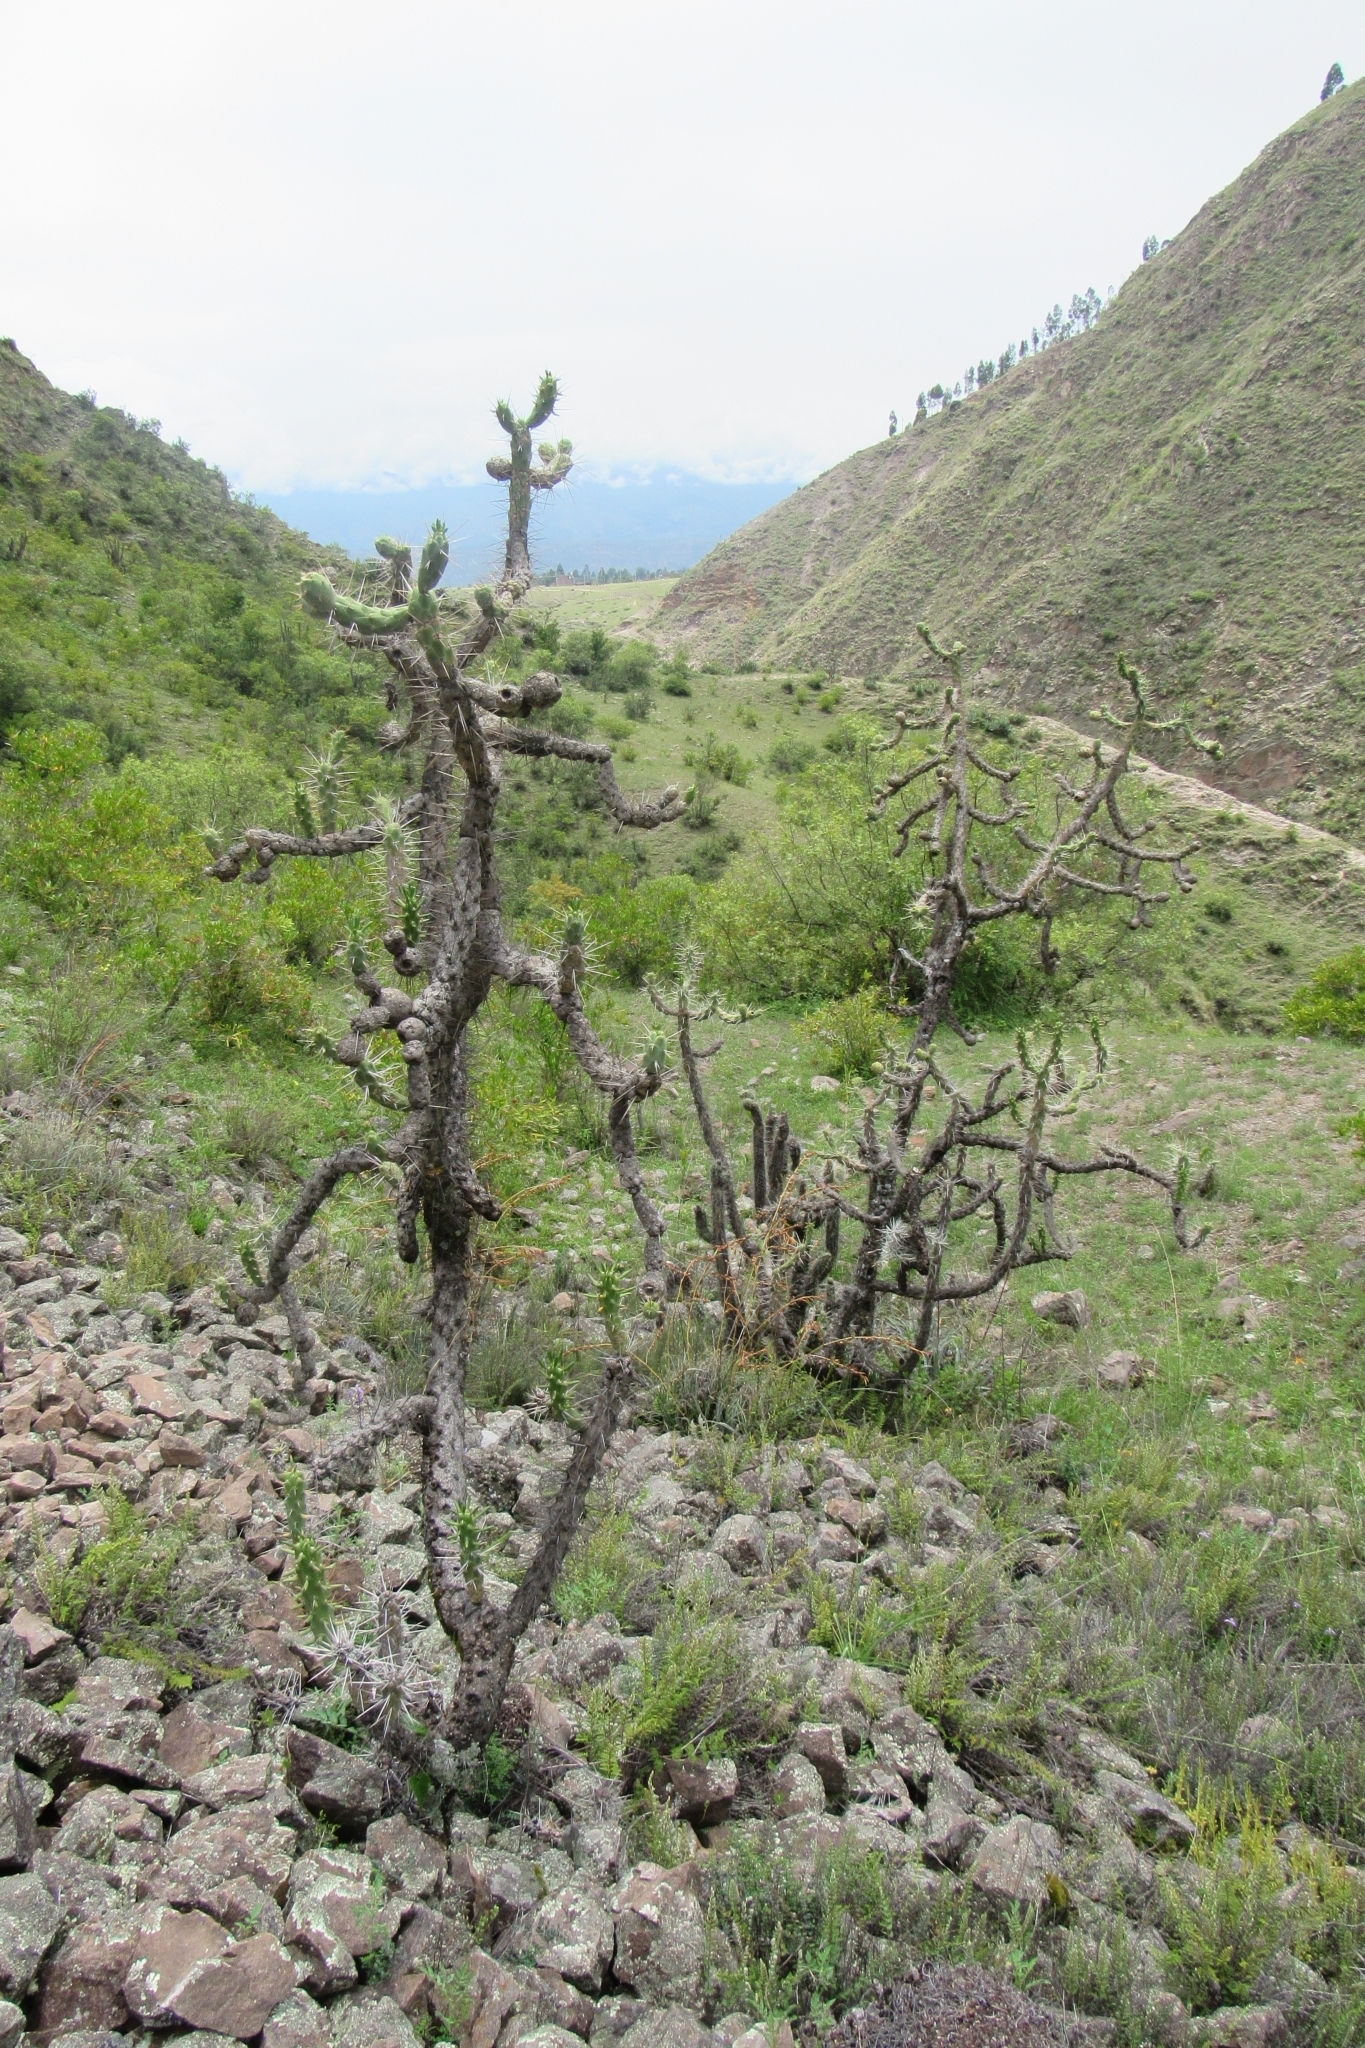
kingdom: Plantae
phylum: Tracheophyta
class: Magnoliopsida
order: Caryophyllales
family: Cactaceae
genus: Austrocylindropuntia
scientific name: Austrocylindropuntia subulata
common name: Eve's needle cactus
